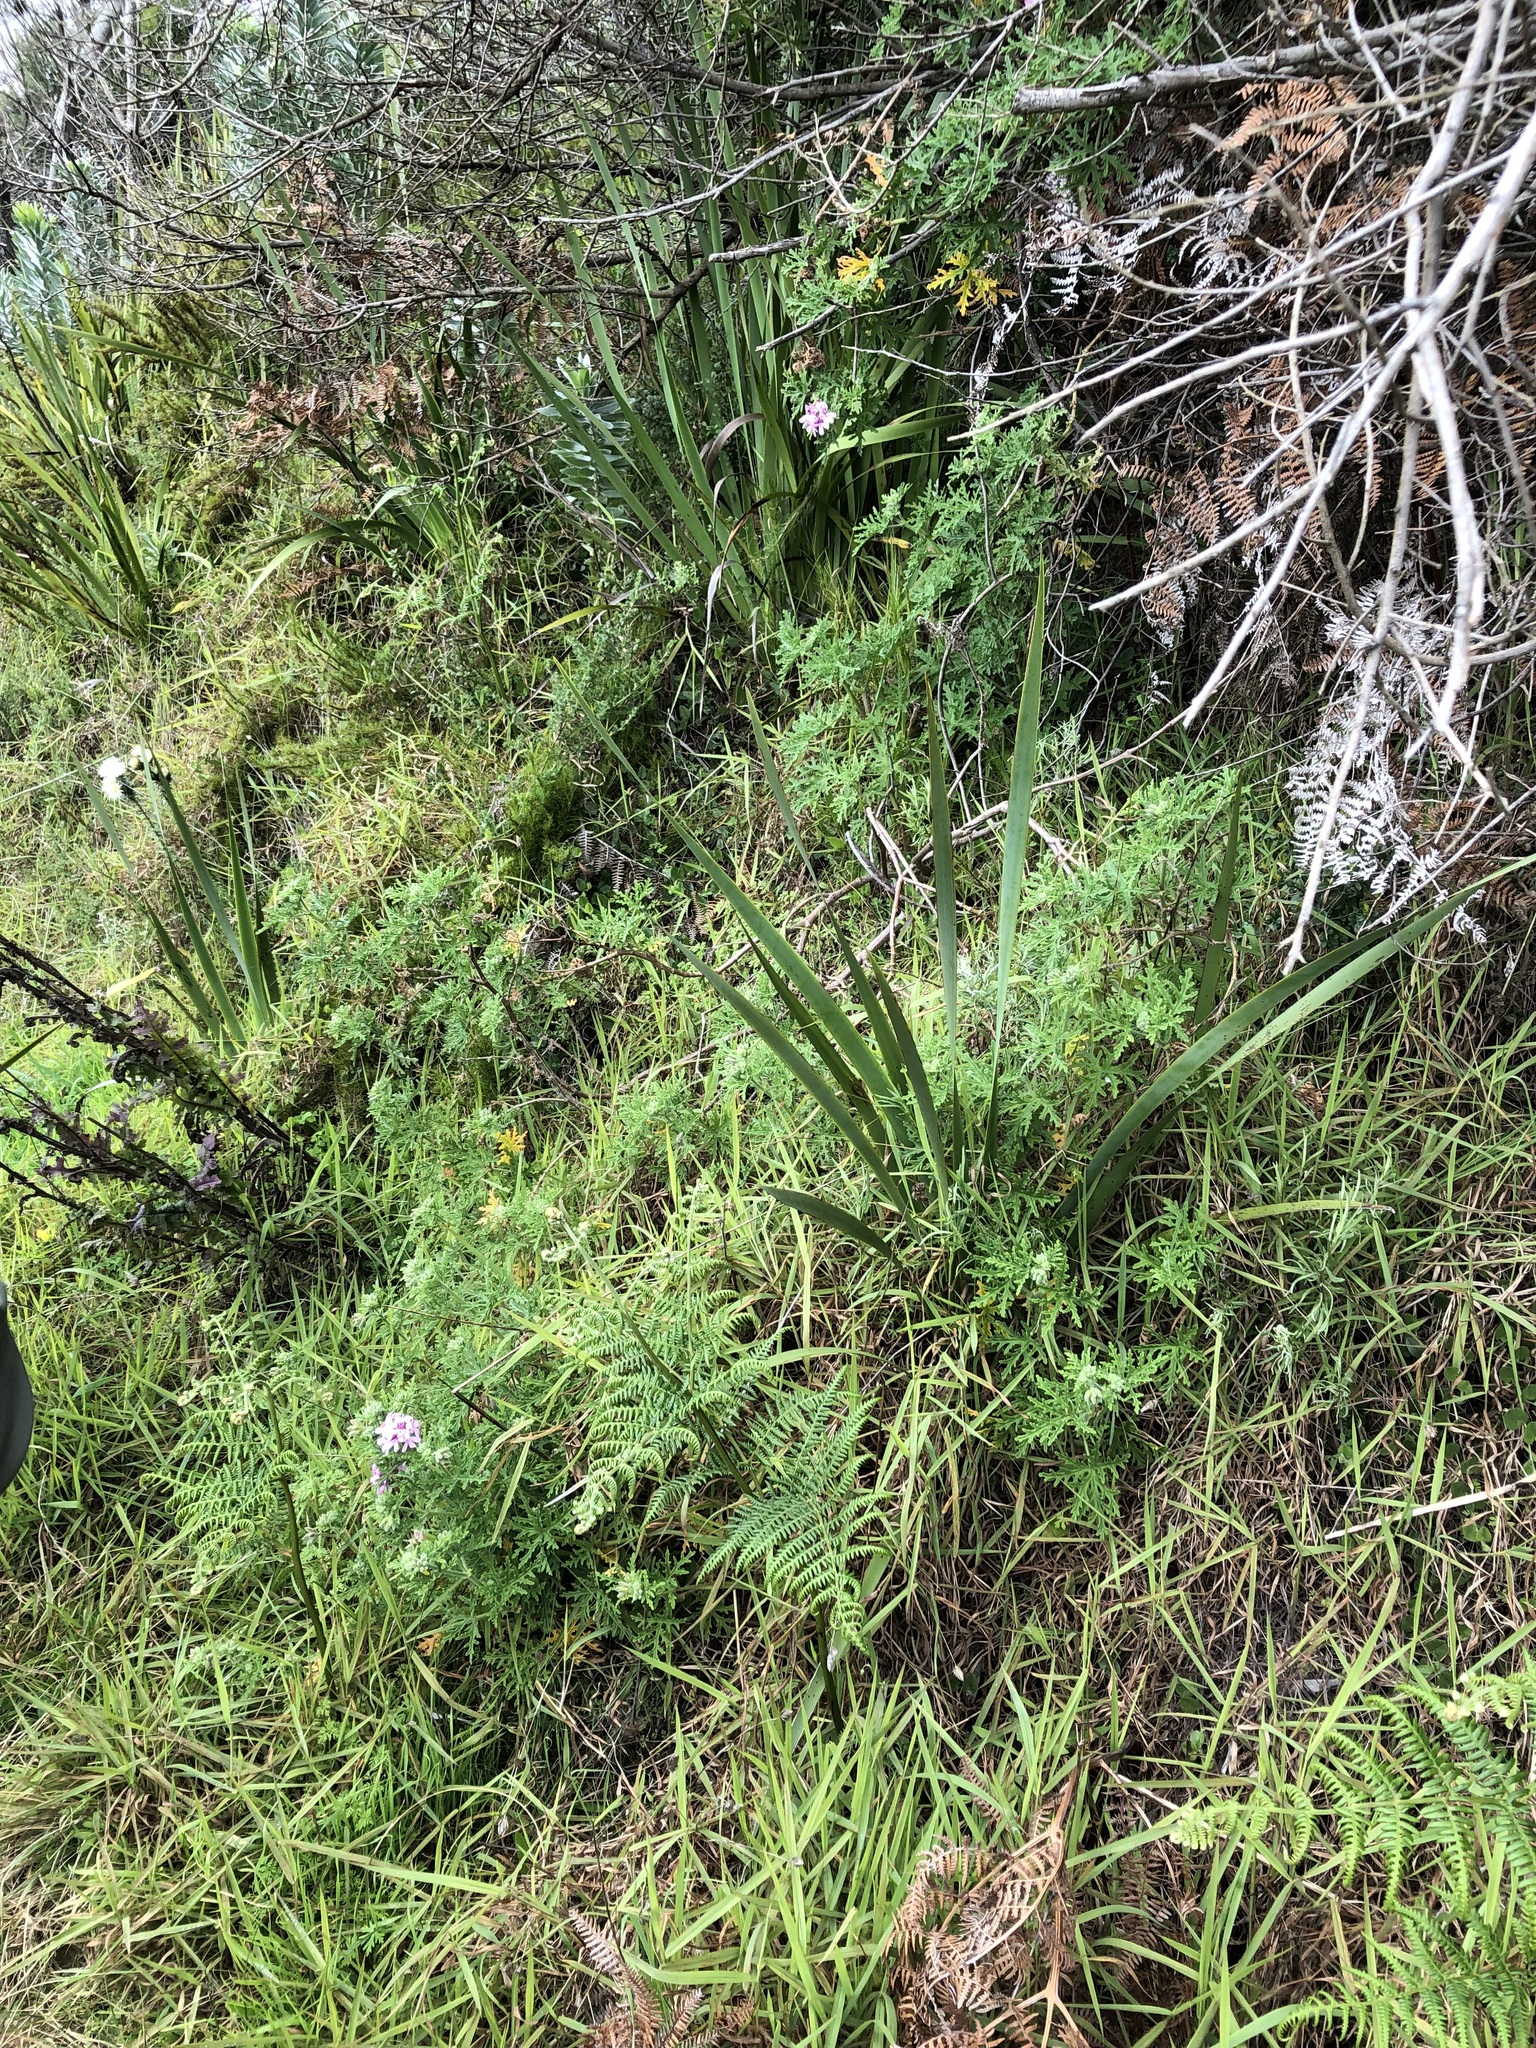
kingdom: Plantae
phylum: Tracheophyta
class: Polypodiopsida
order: Polypodiales
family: Dennstaedtiaceae
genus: Pteridium
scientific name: Pteridium aquilinum
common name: Bracken
